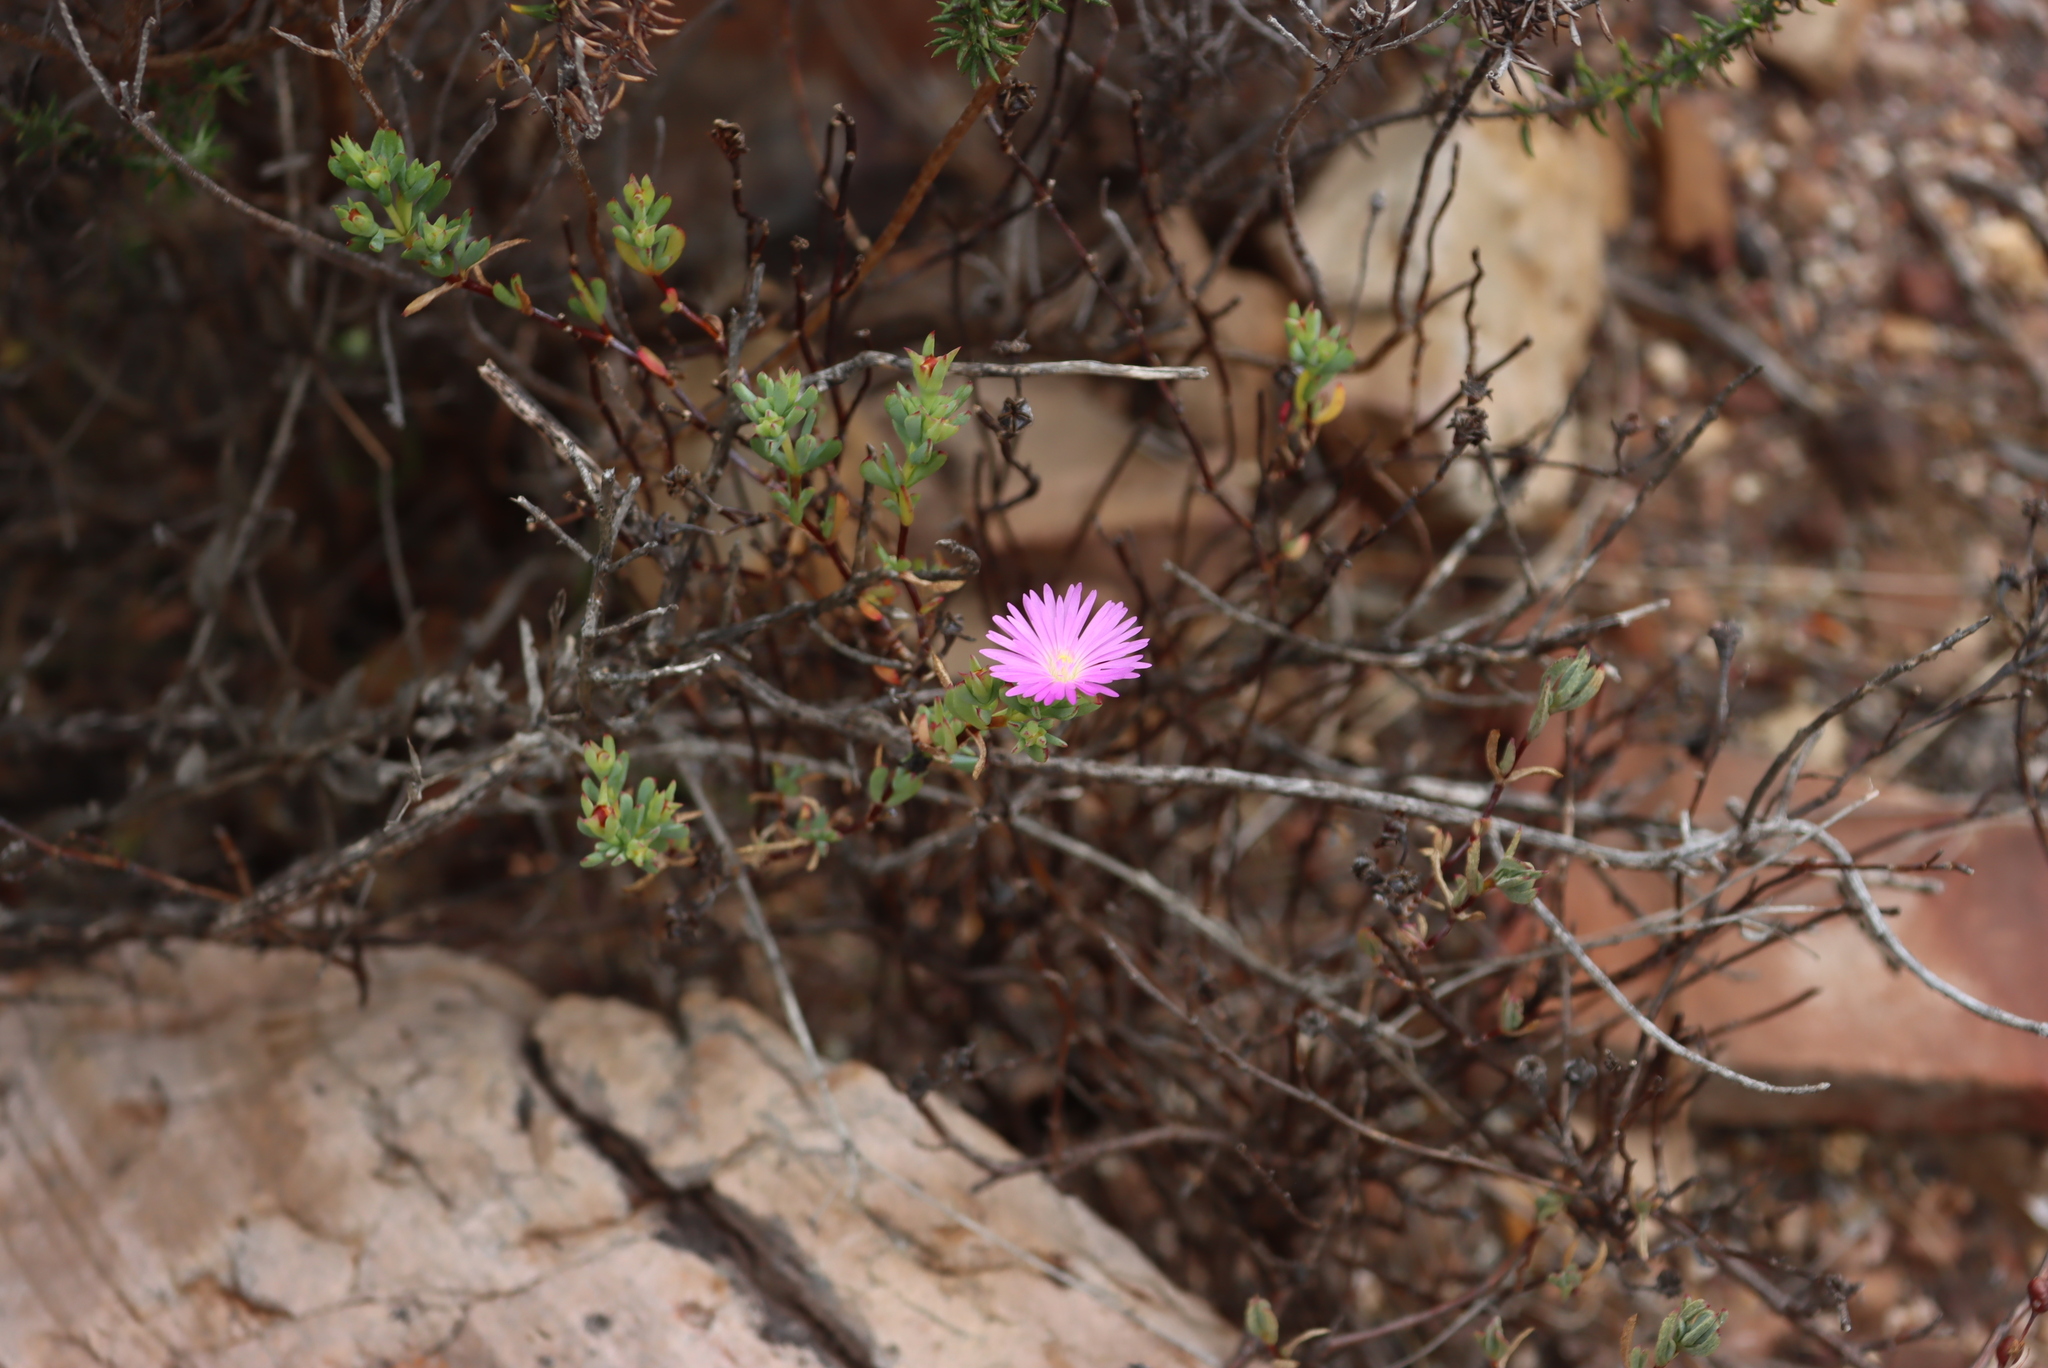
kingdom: Plantae
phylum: Tracheophyta
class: Magnoliopsida
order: Caryophyllales
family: Aizoaceae
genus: Lampranthus
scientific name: Lampranthus glomeratus
